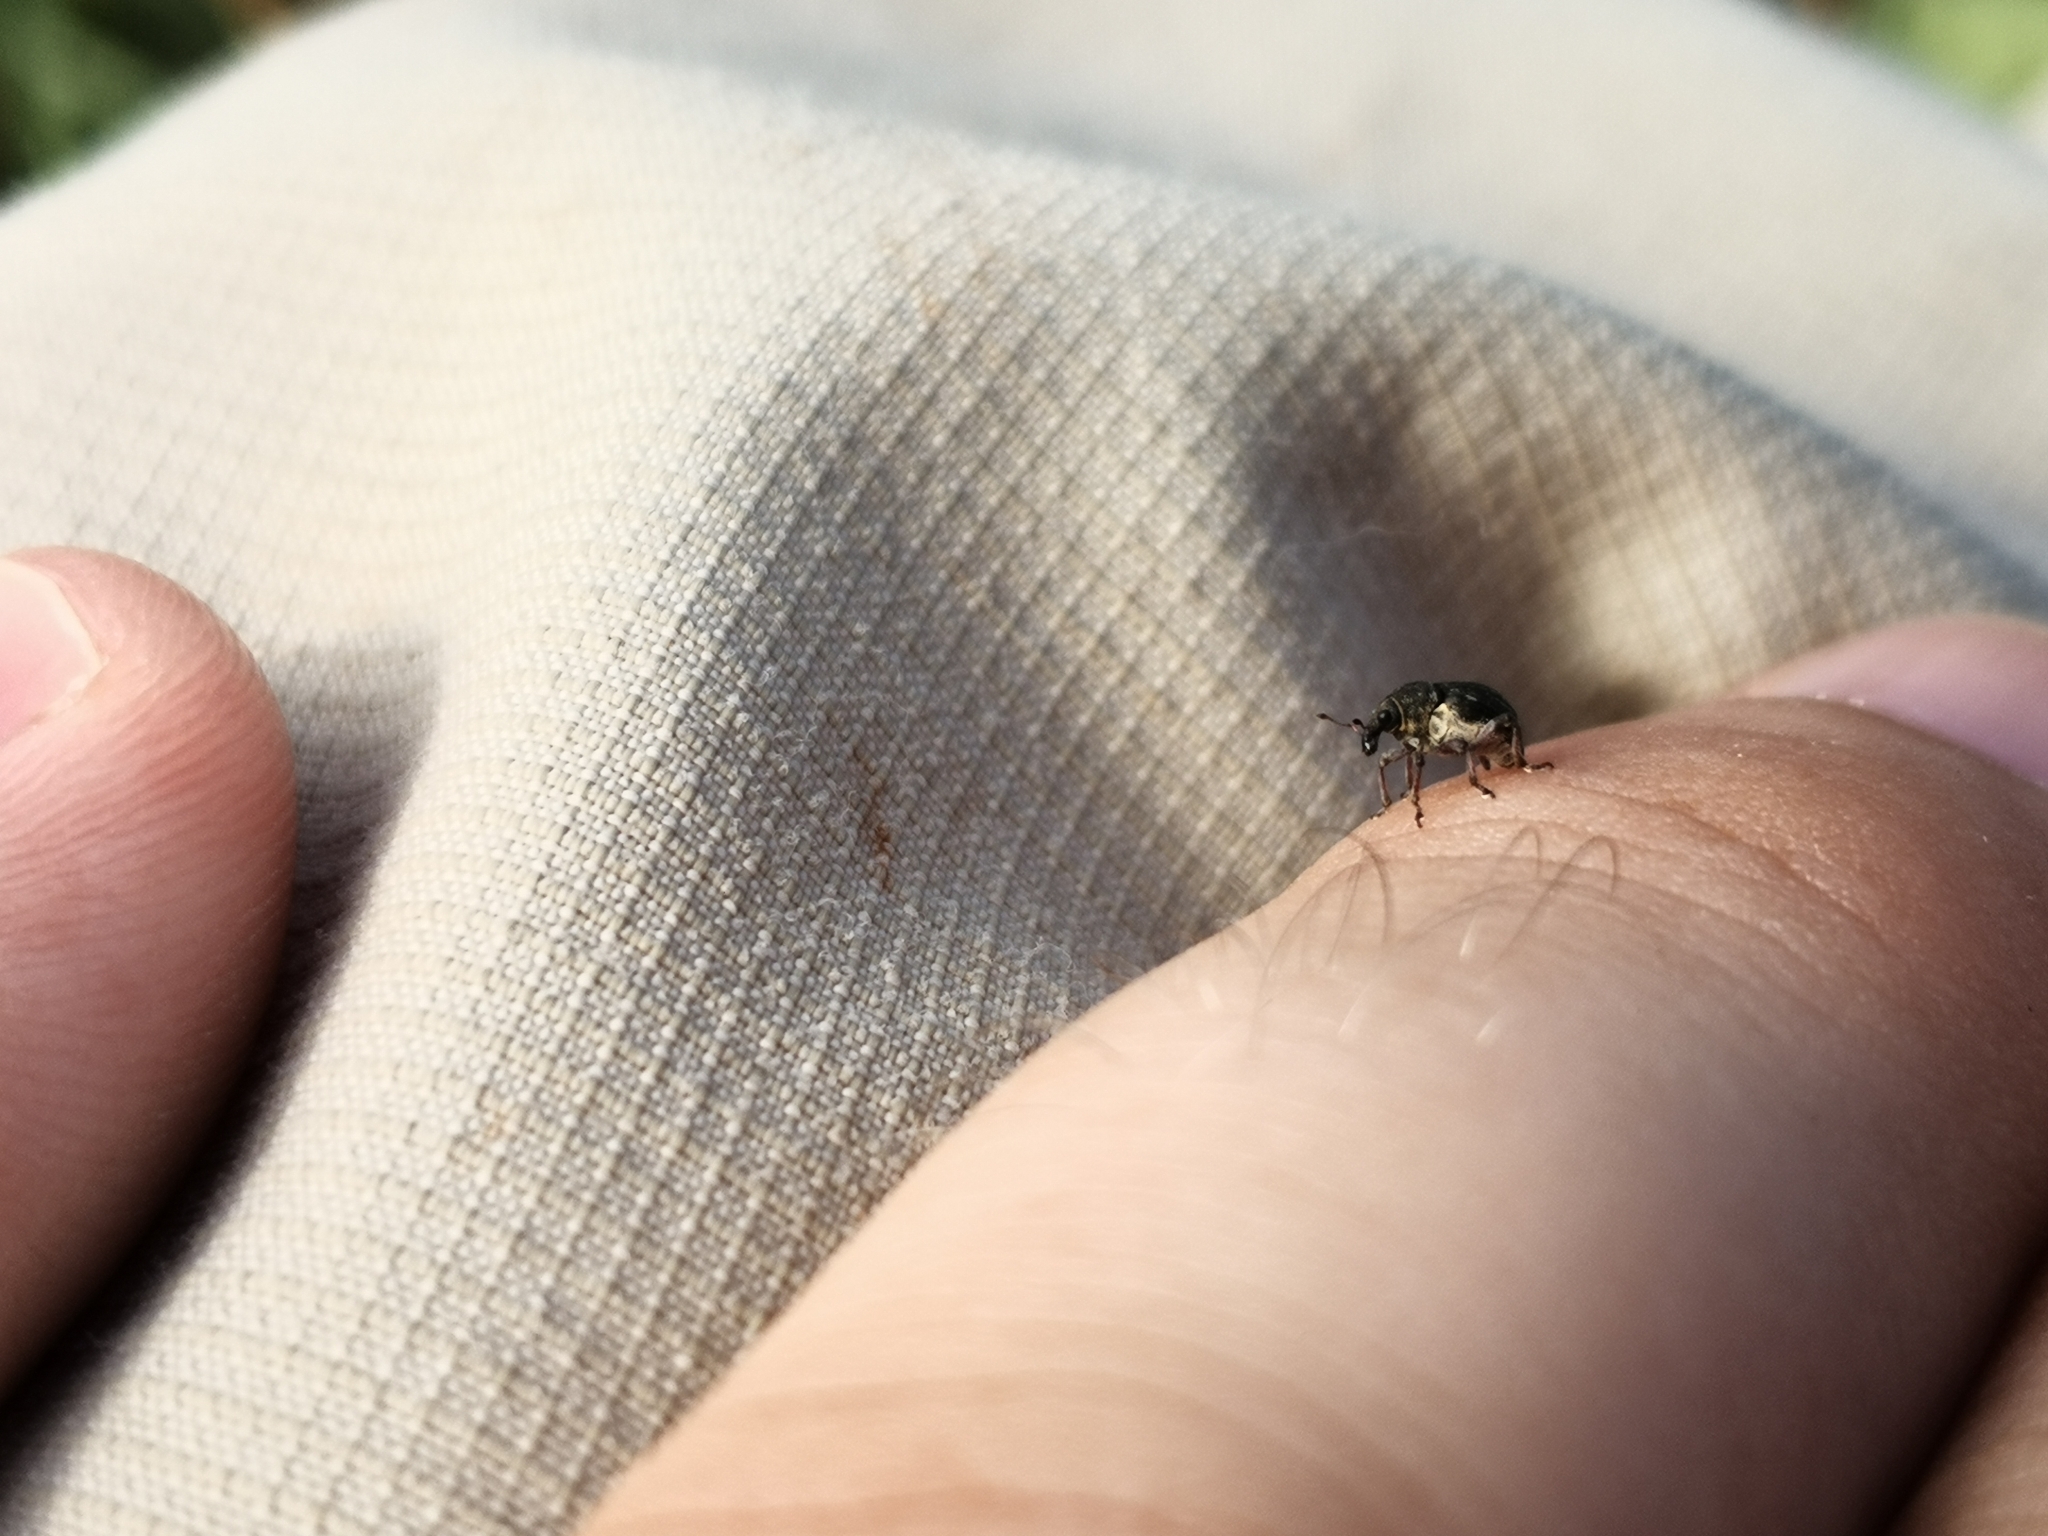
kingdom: Animalia
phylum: Arthropoda
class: Insecta
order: Coleoptera
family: Curculionidae
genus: Rhinoncus
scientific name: Rhinoncus leucostigma
